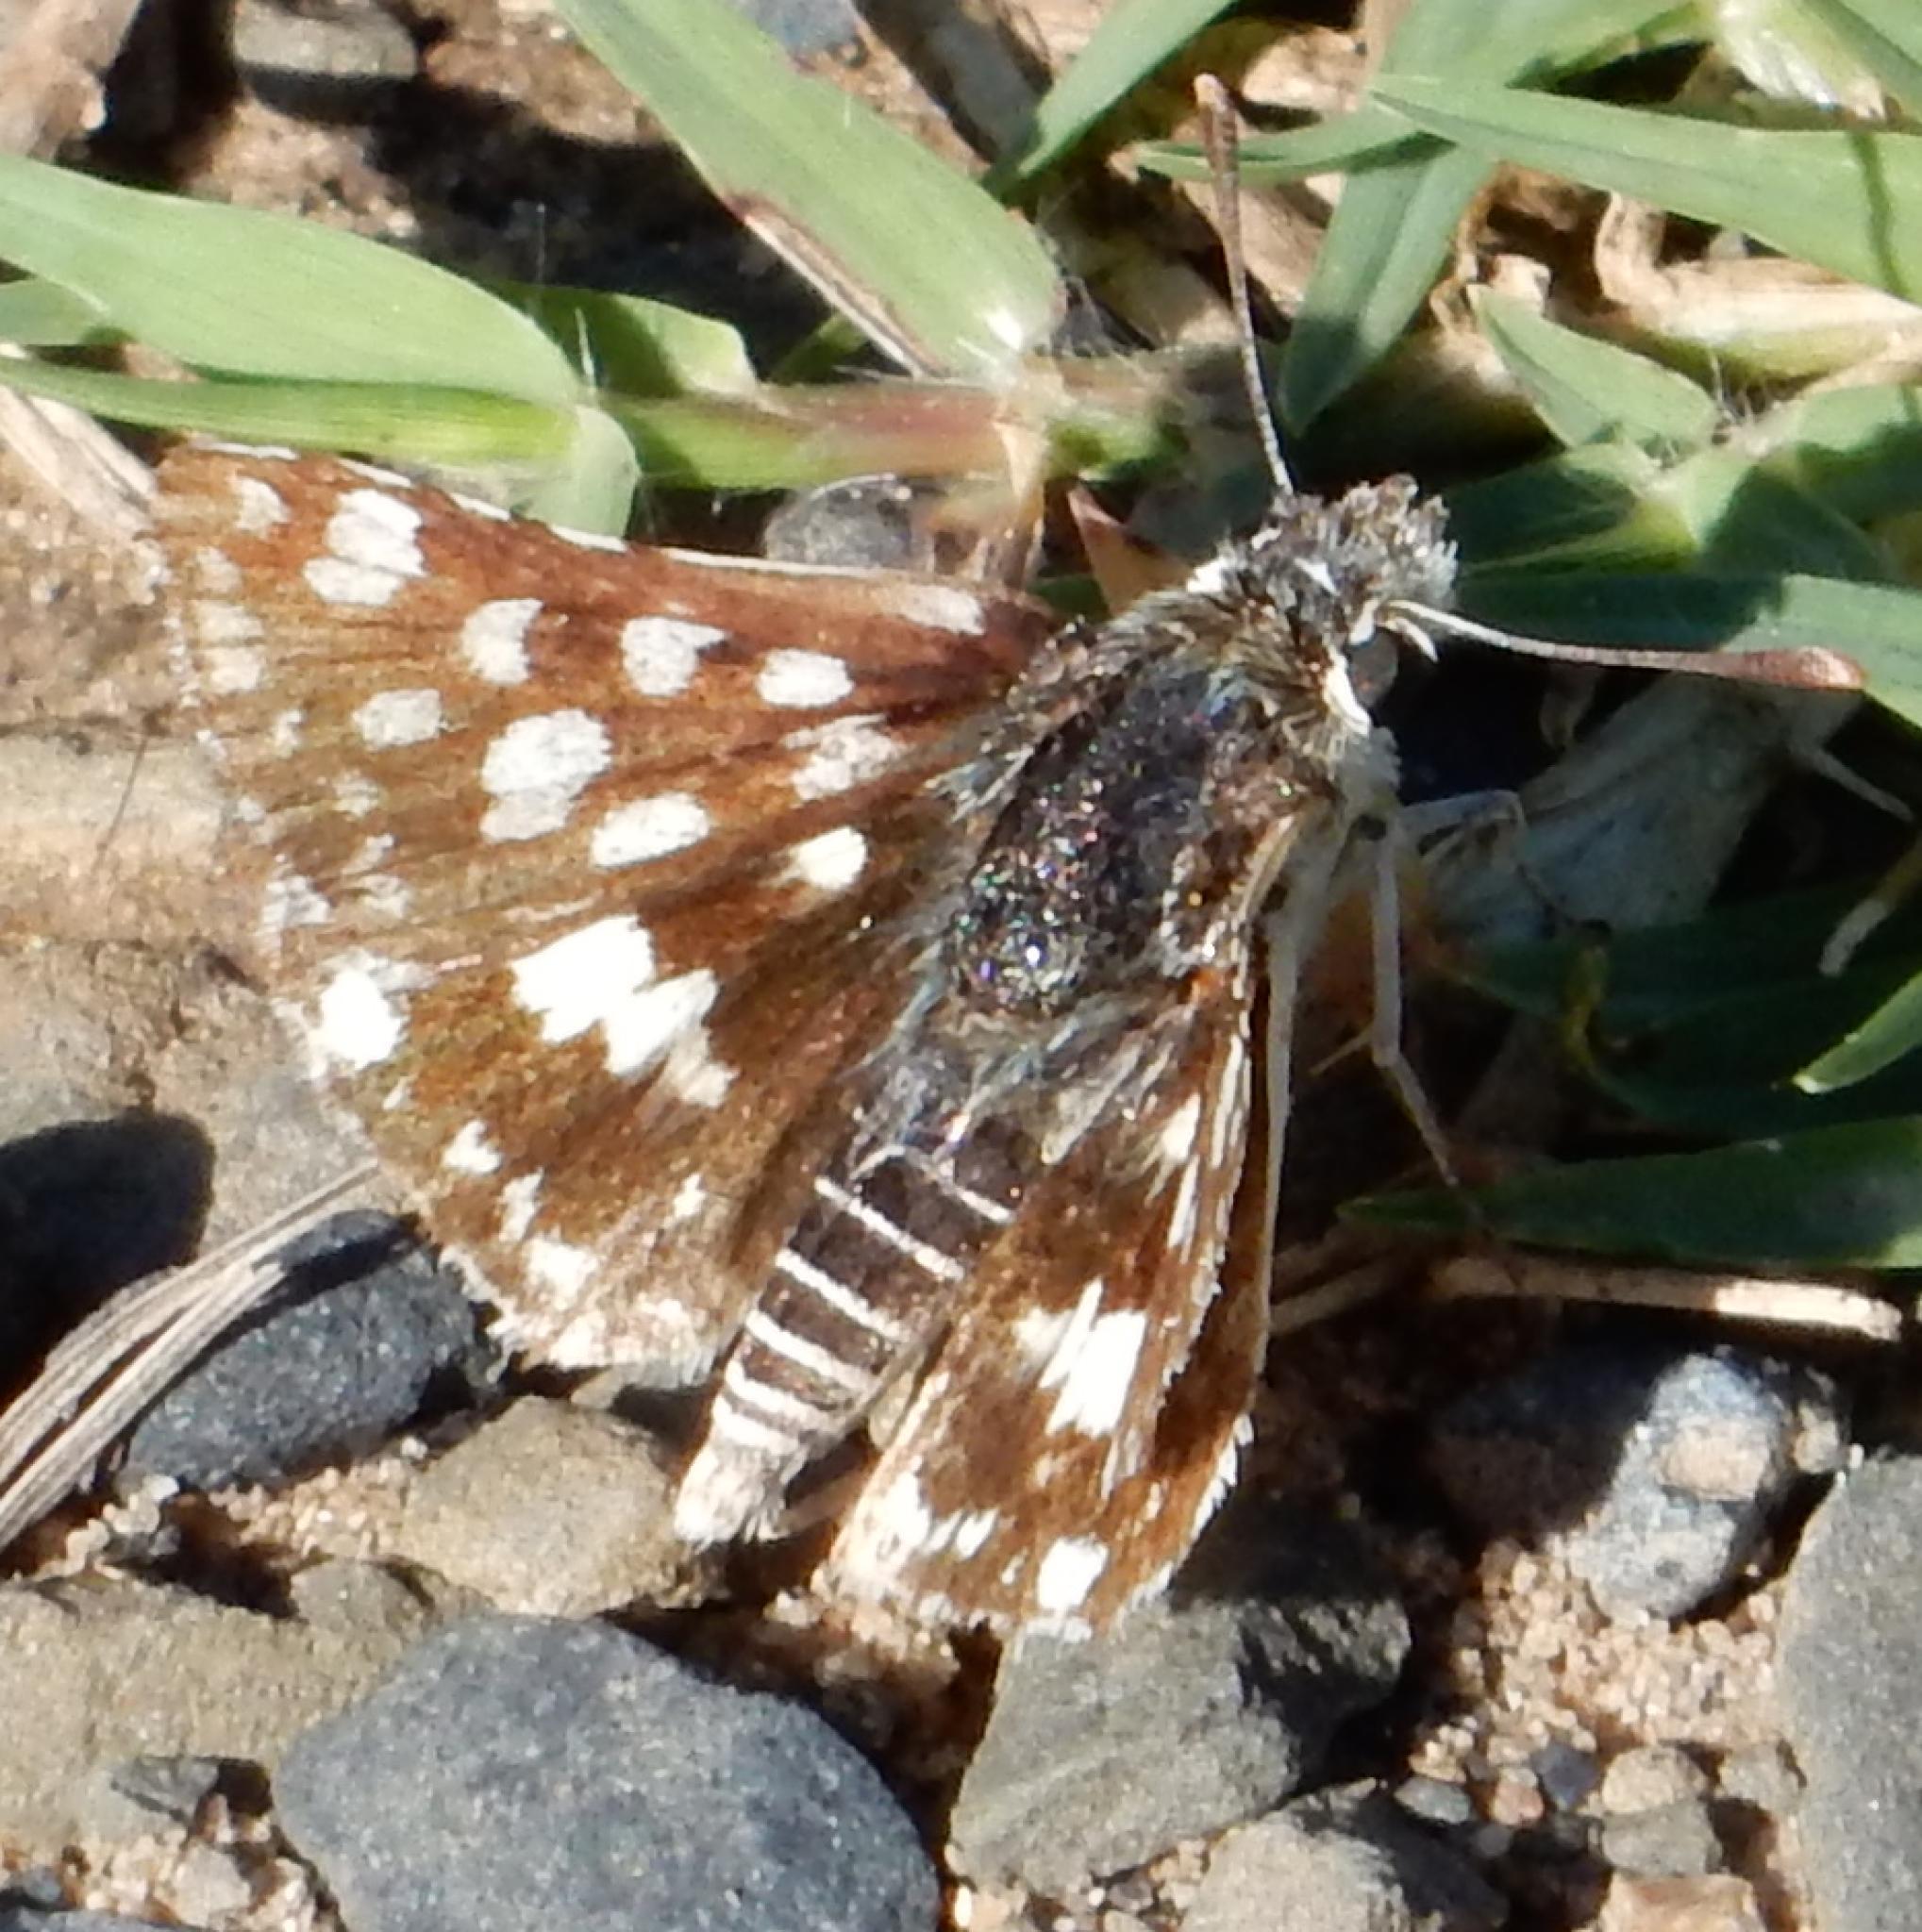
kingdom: Animalia
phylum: Arthropoda
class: Insecta
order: Lepidoptera
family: Hesperiidae
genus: Spialia
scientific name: Spialia spio
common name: Mountain sandman
